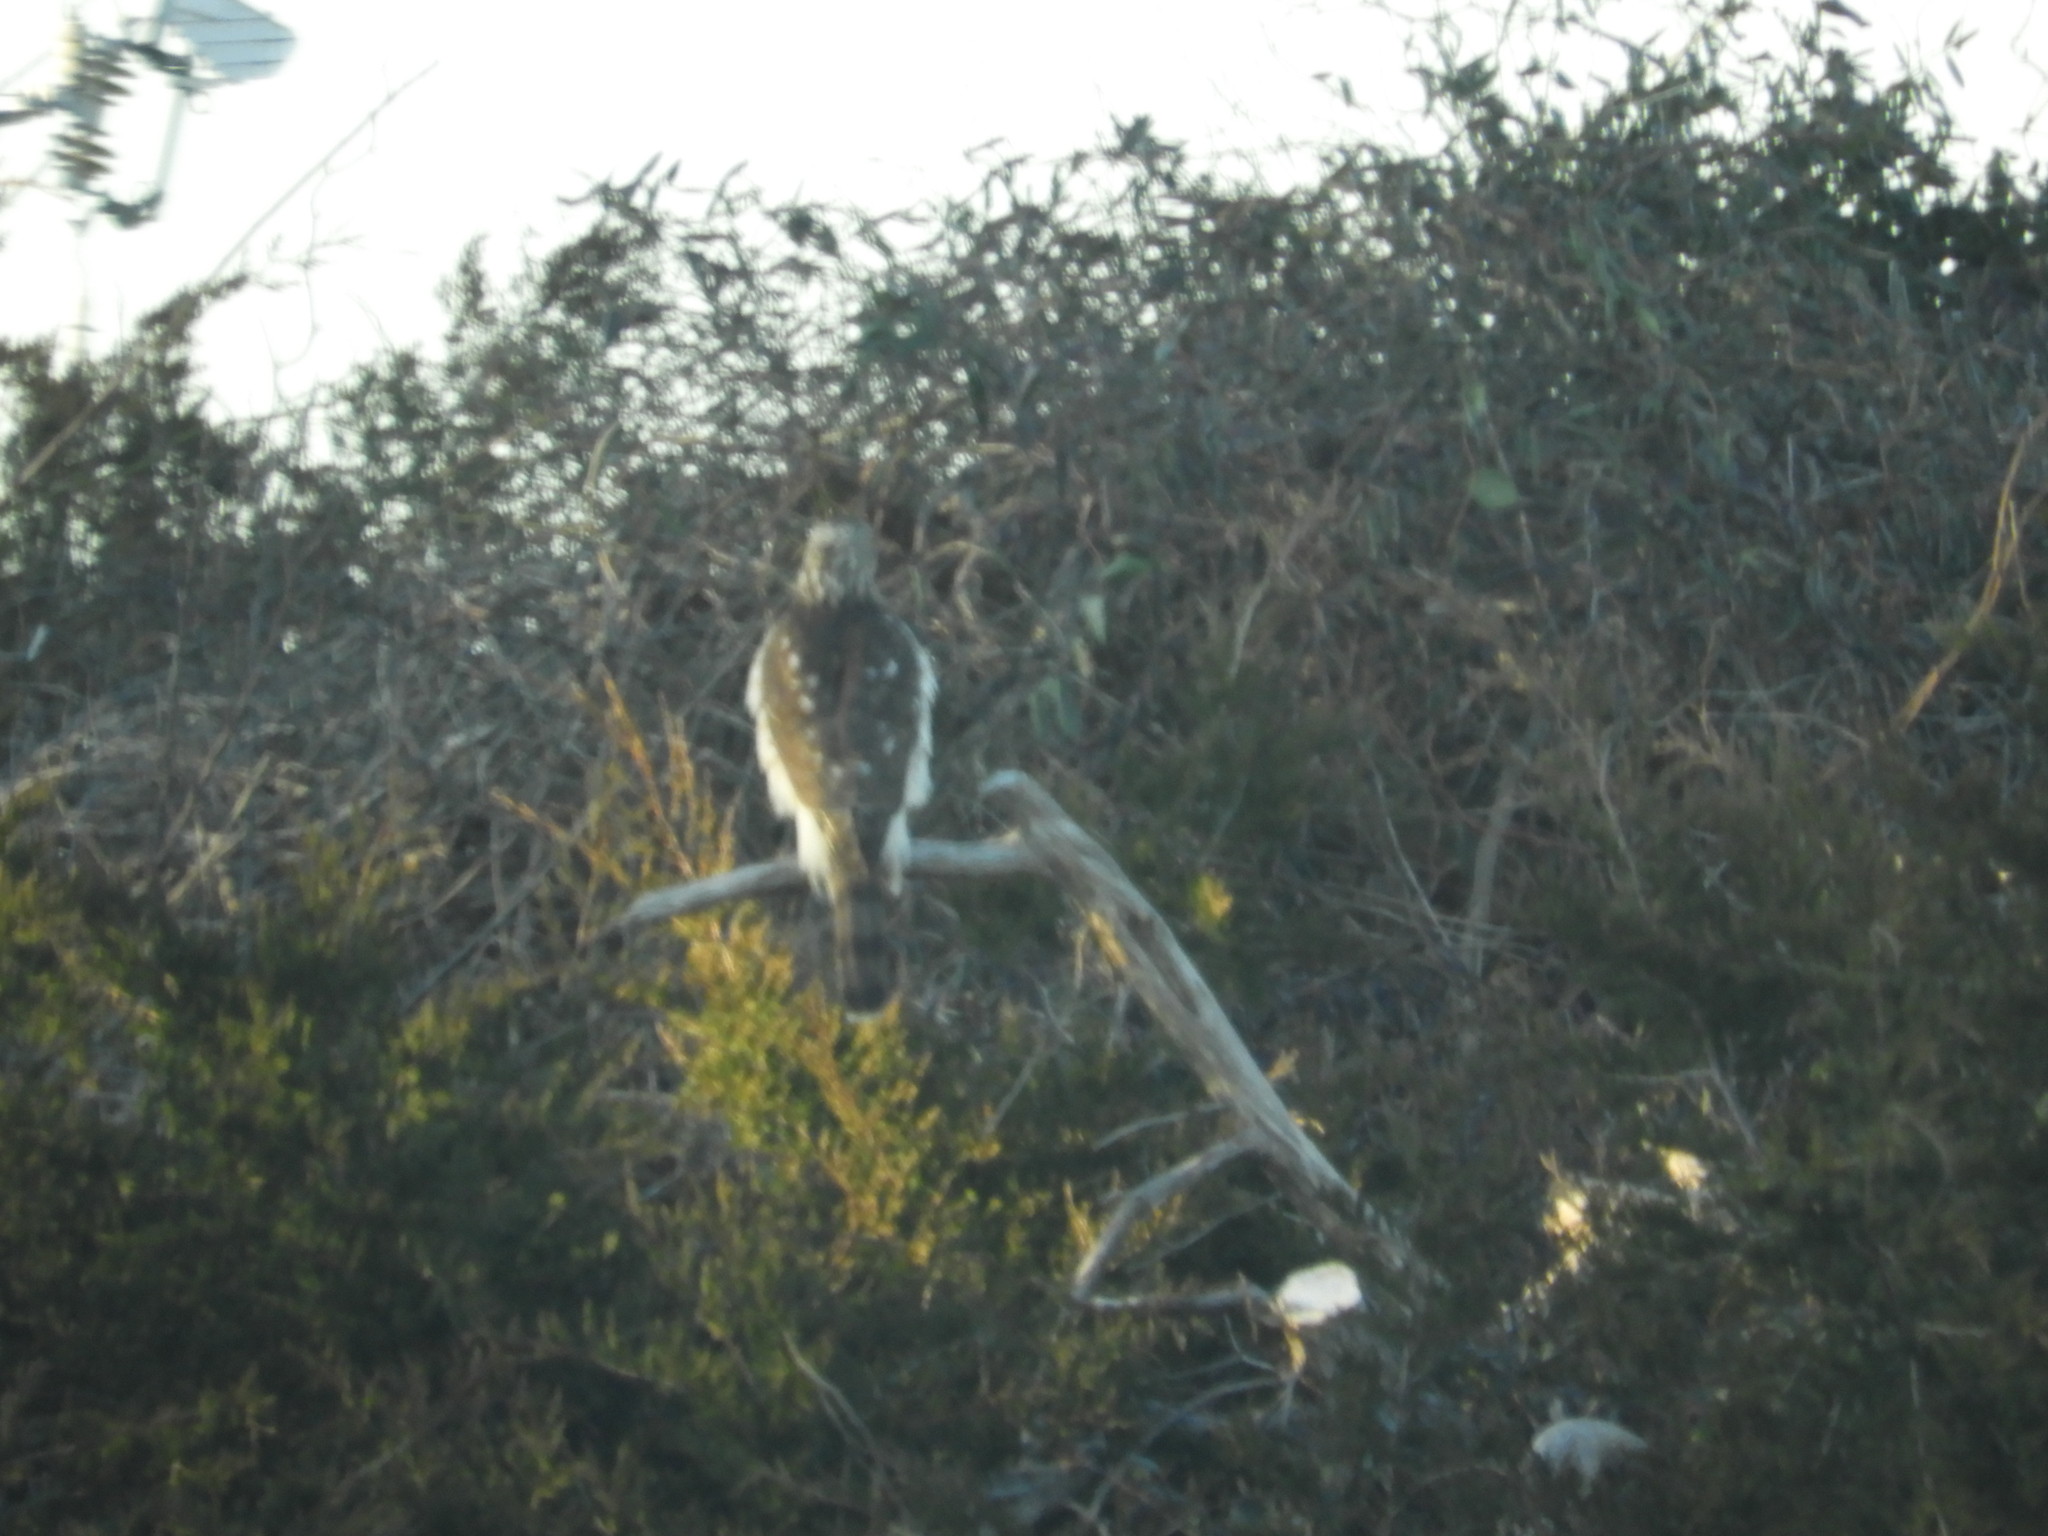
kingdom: Animalia
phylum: Chordata
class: Aves
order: Accipitriformes
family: Accipitridae
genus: Accipiter
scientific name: Accipiter cooperii
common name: Cooper's hawk
